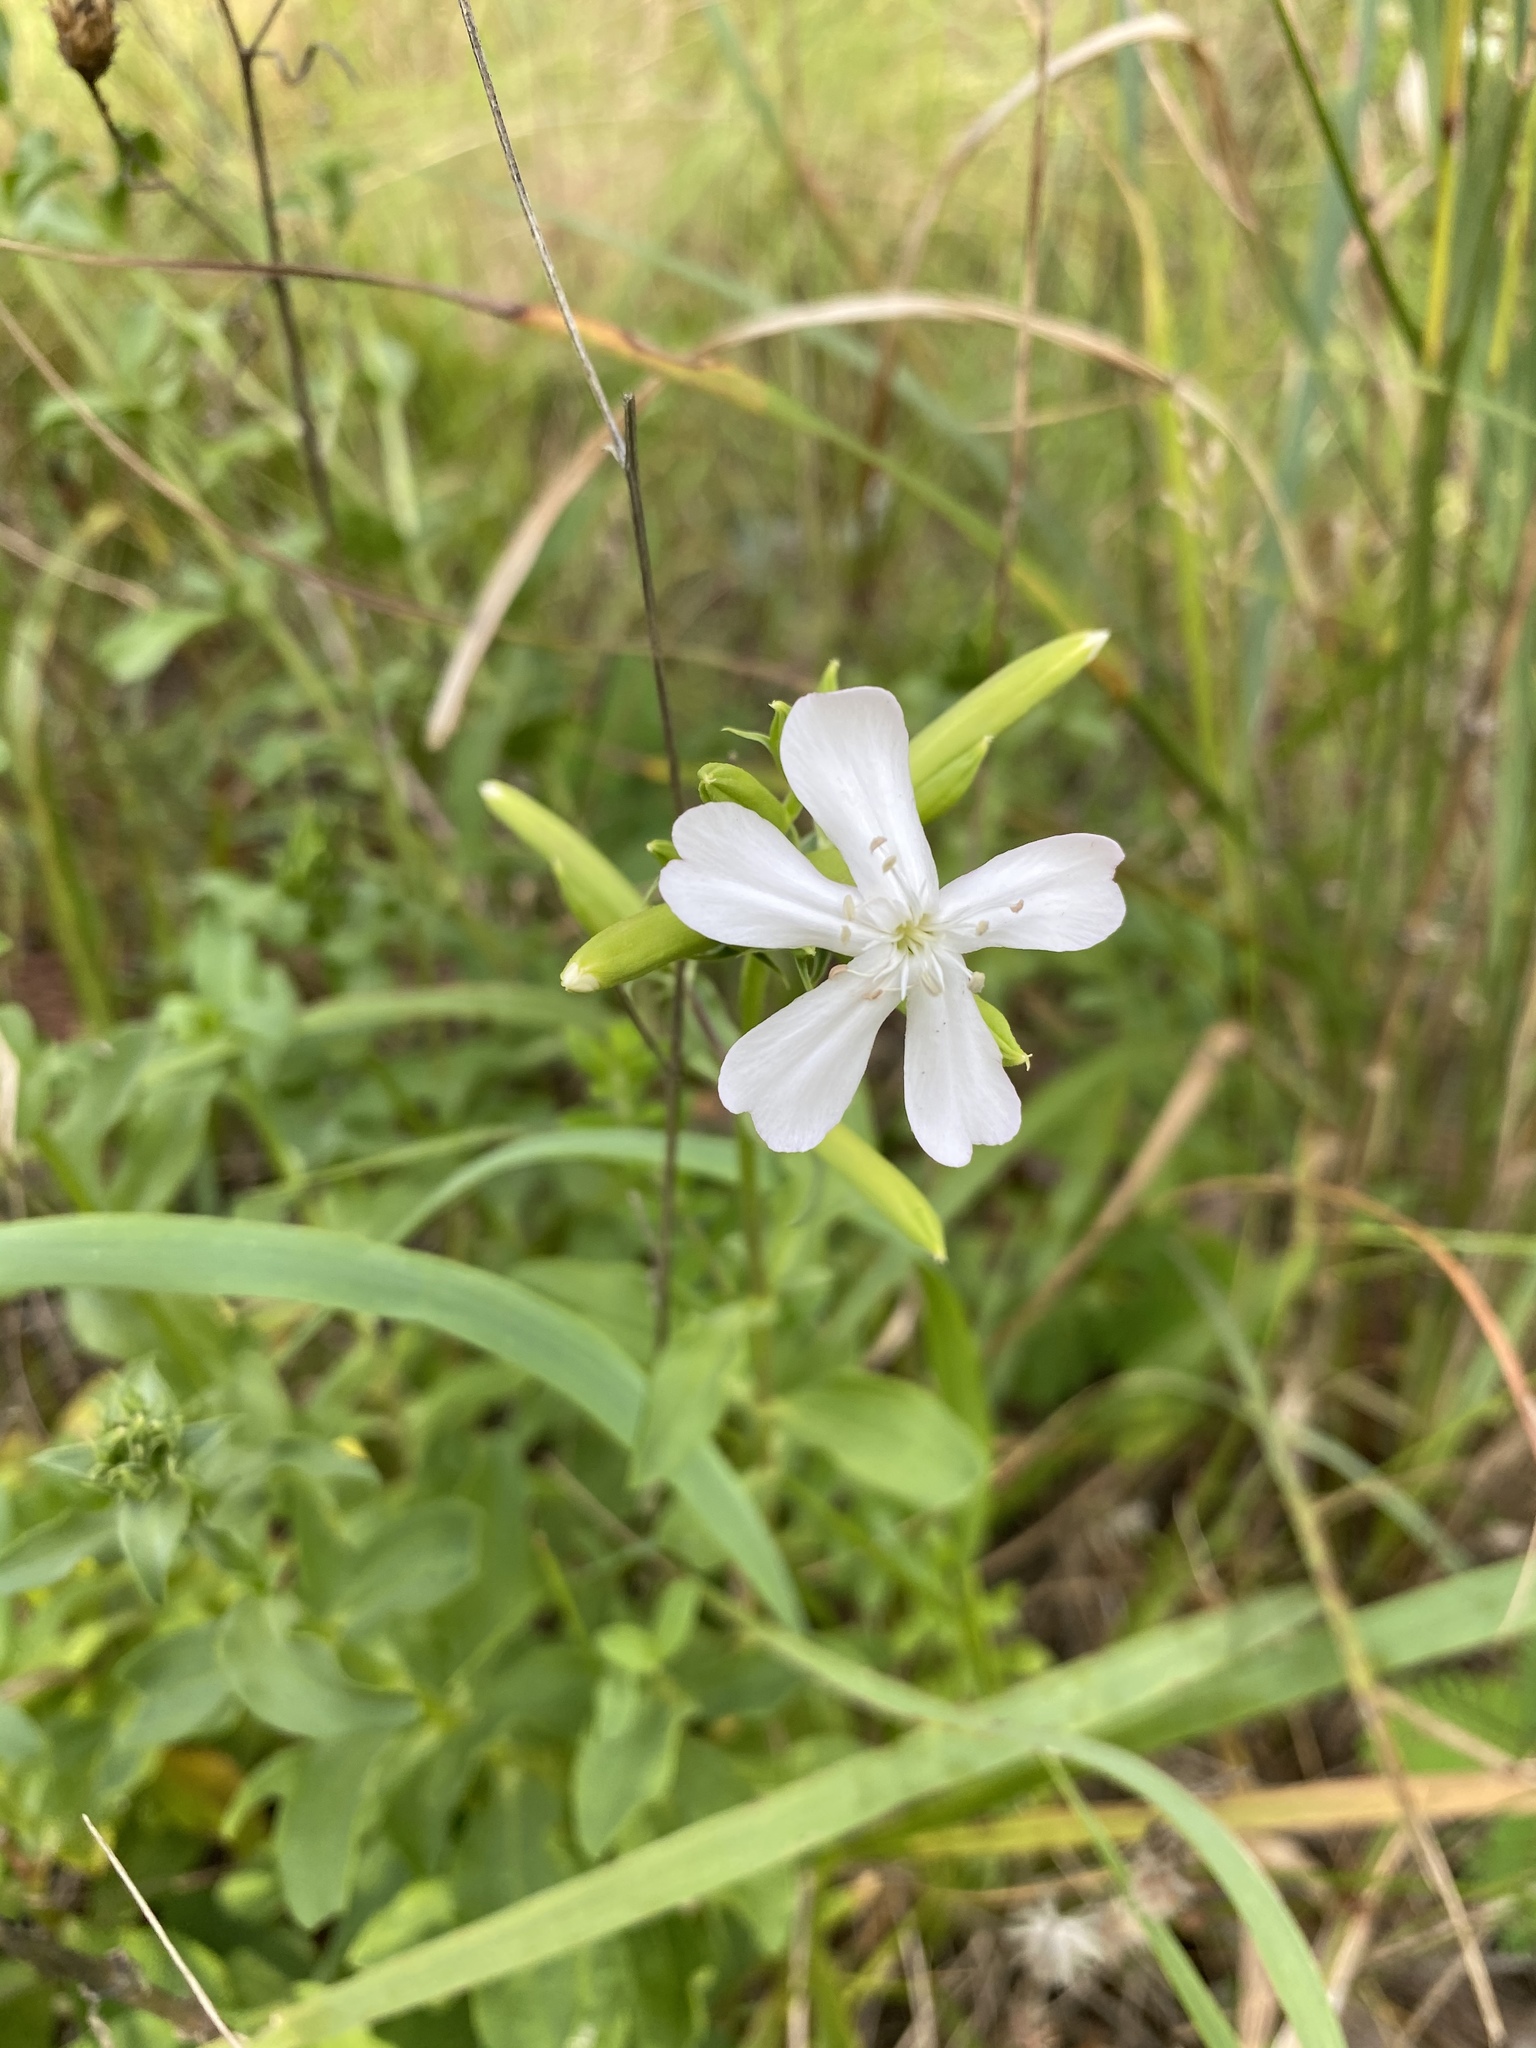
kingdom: Plantae
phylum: Tracheophyta
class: Magnoliopsida
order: Caryophyllales
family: Caryophyllaceae
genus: Saponaria
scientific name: Saponaria officinalis
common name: Soapwort
